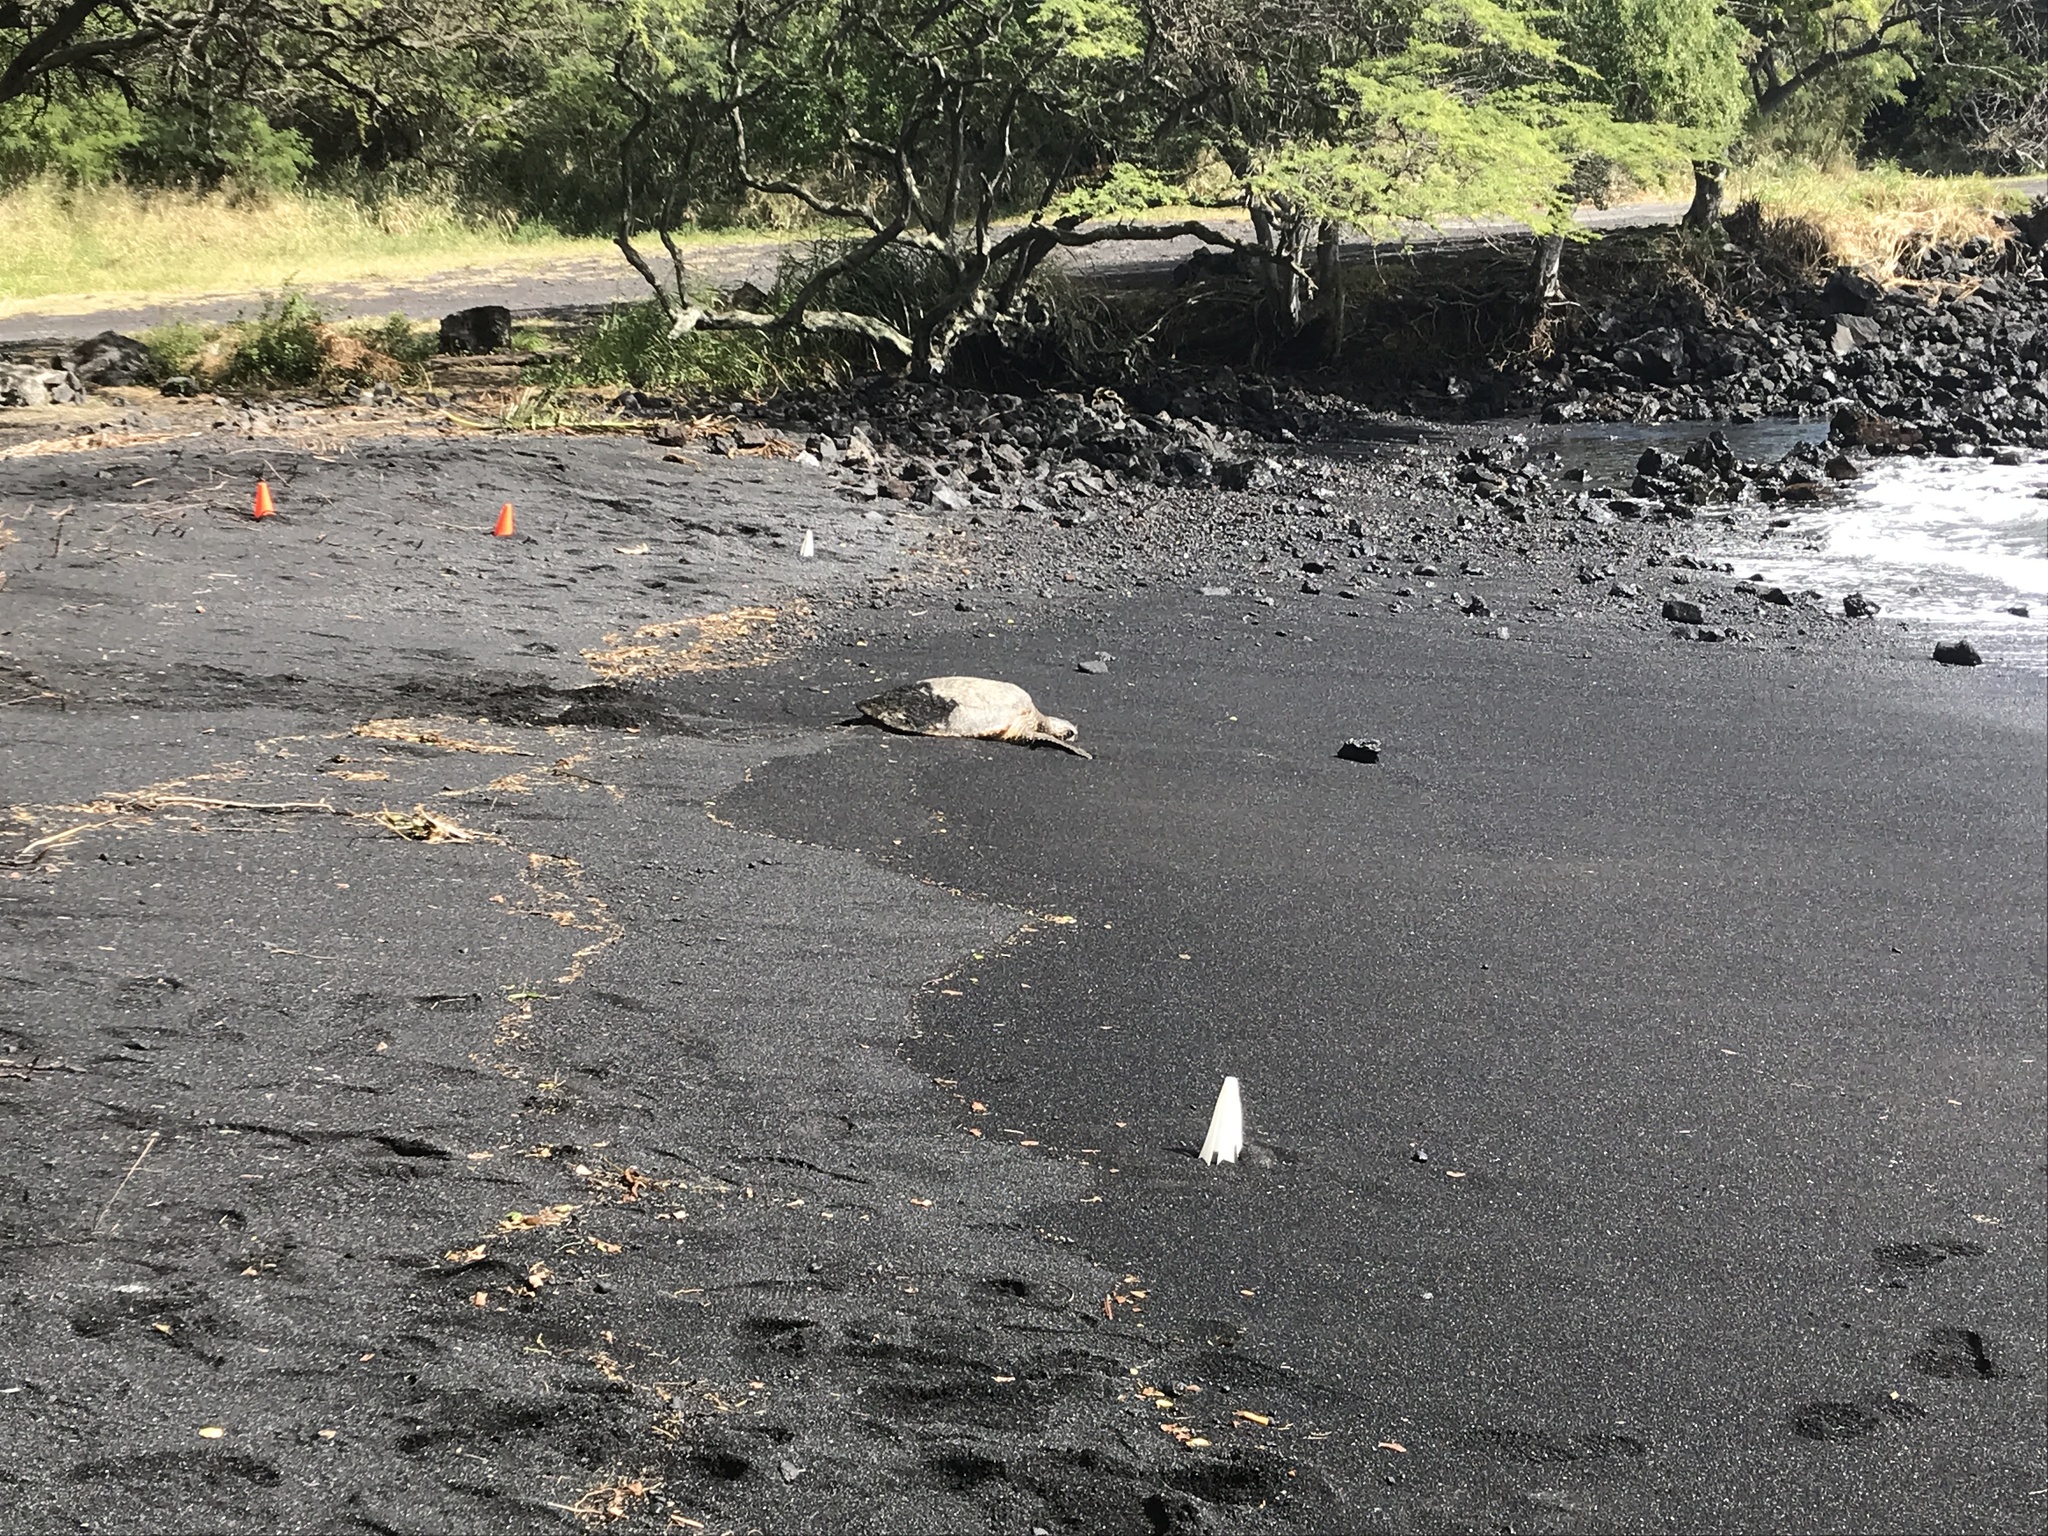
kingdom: Animalia
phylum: Chordata
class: Testudines
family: Cheloniidae
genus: Chelonia
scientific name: Chelonia mydas
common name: Green turtle
